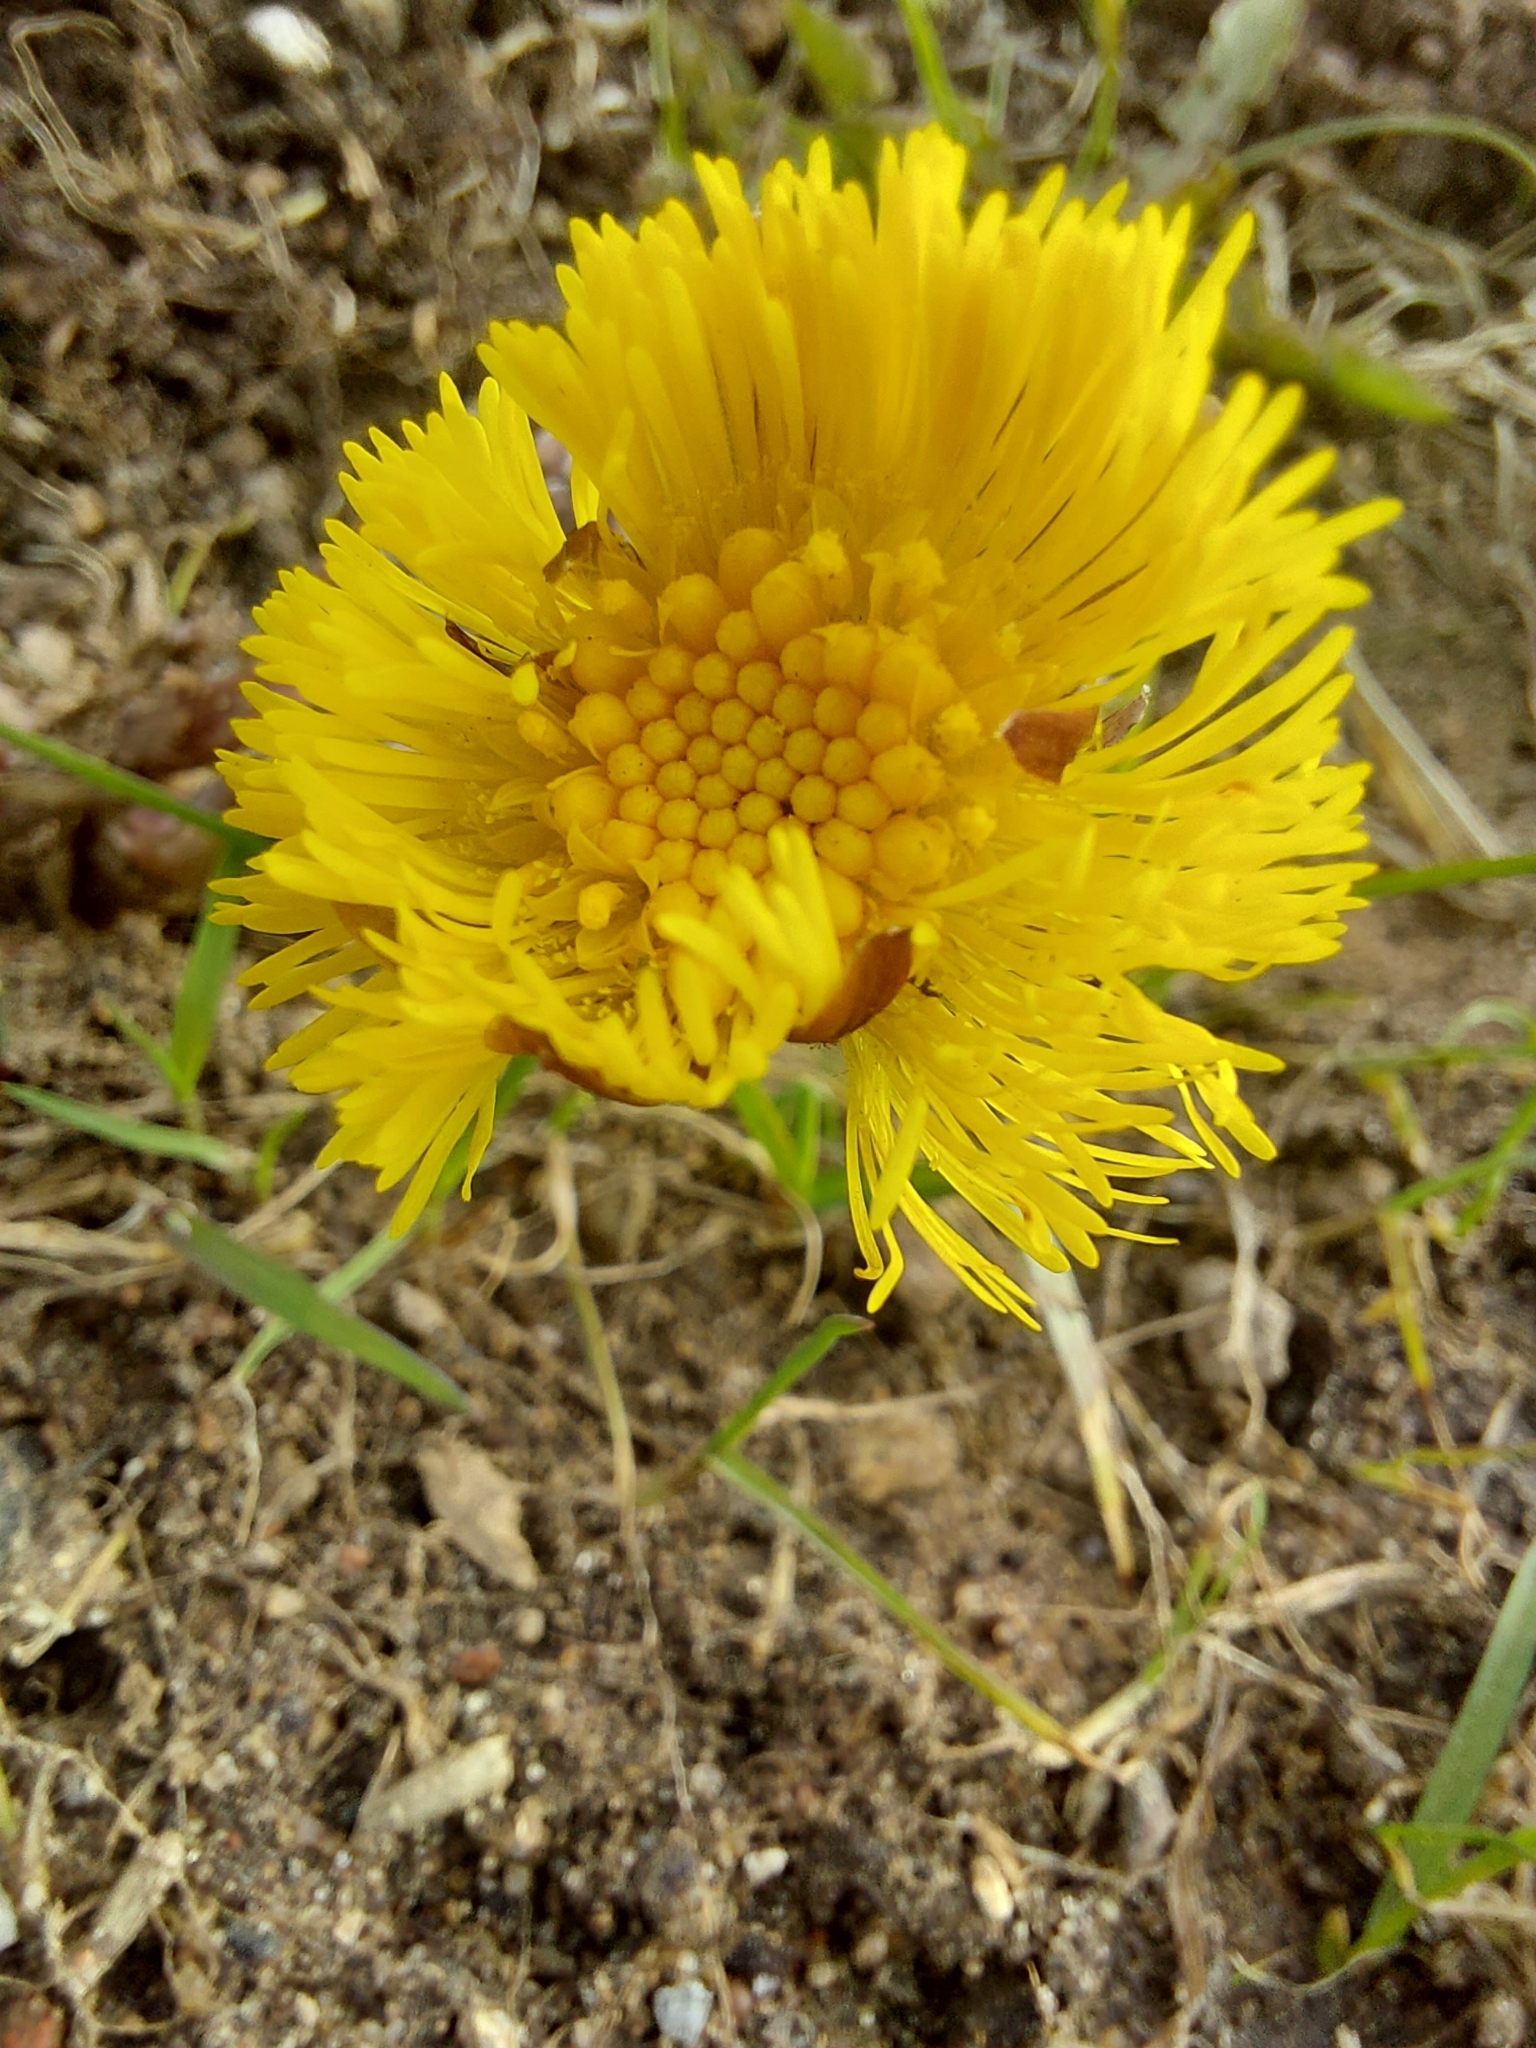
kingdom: Plantae
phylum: Tracheophyta
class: Magnoliopsida
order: Asterales
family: Asteraceae
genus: Tussilago
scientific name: Tussilago farfara
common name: Coltsfoot
